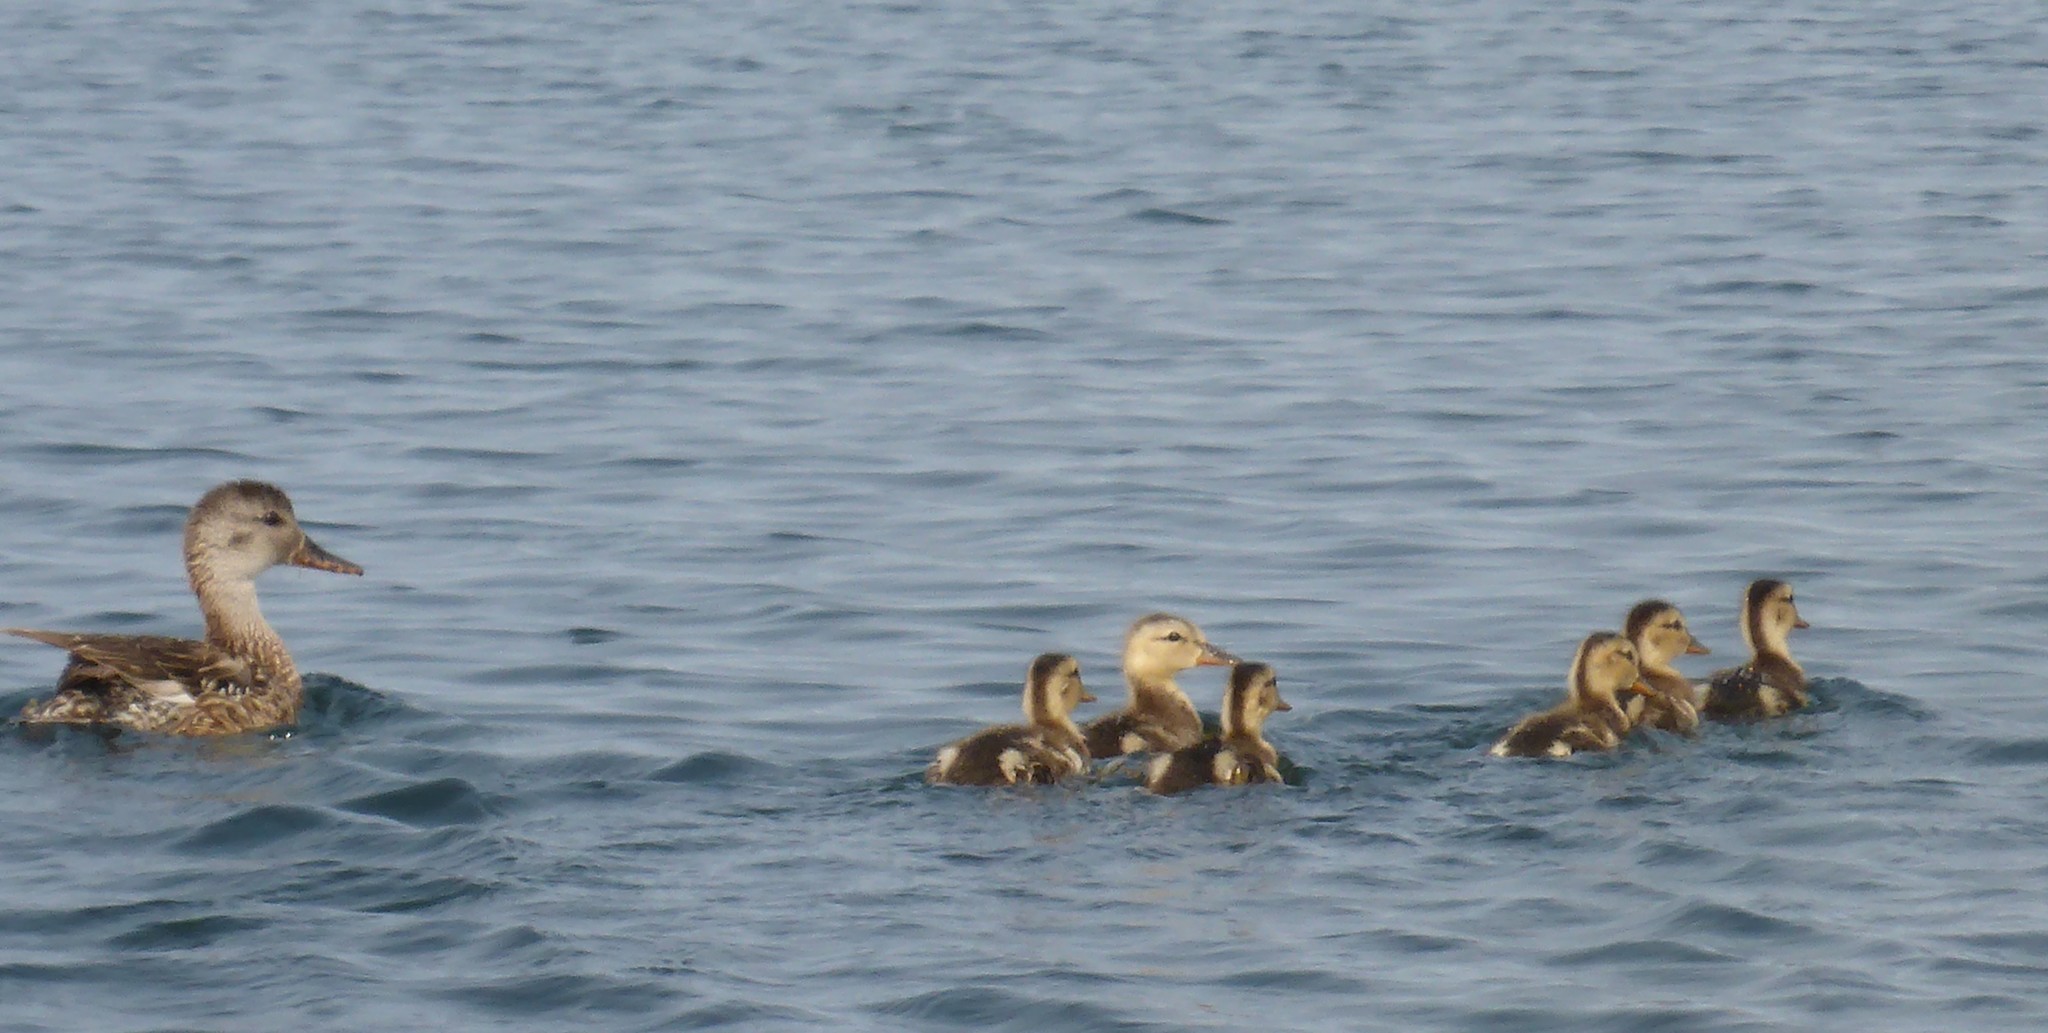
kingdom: Animalia
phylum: Chordata
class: Aves
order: Anseriformes
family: Anatidae
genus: Anas
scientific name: Anas platyrhynchos
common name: Mallard
